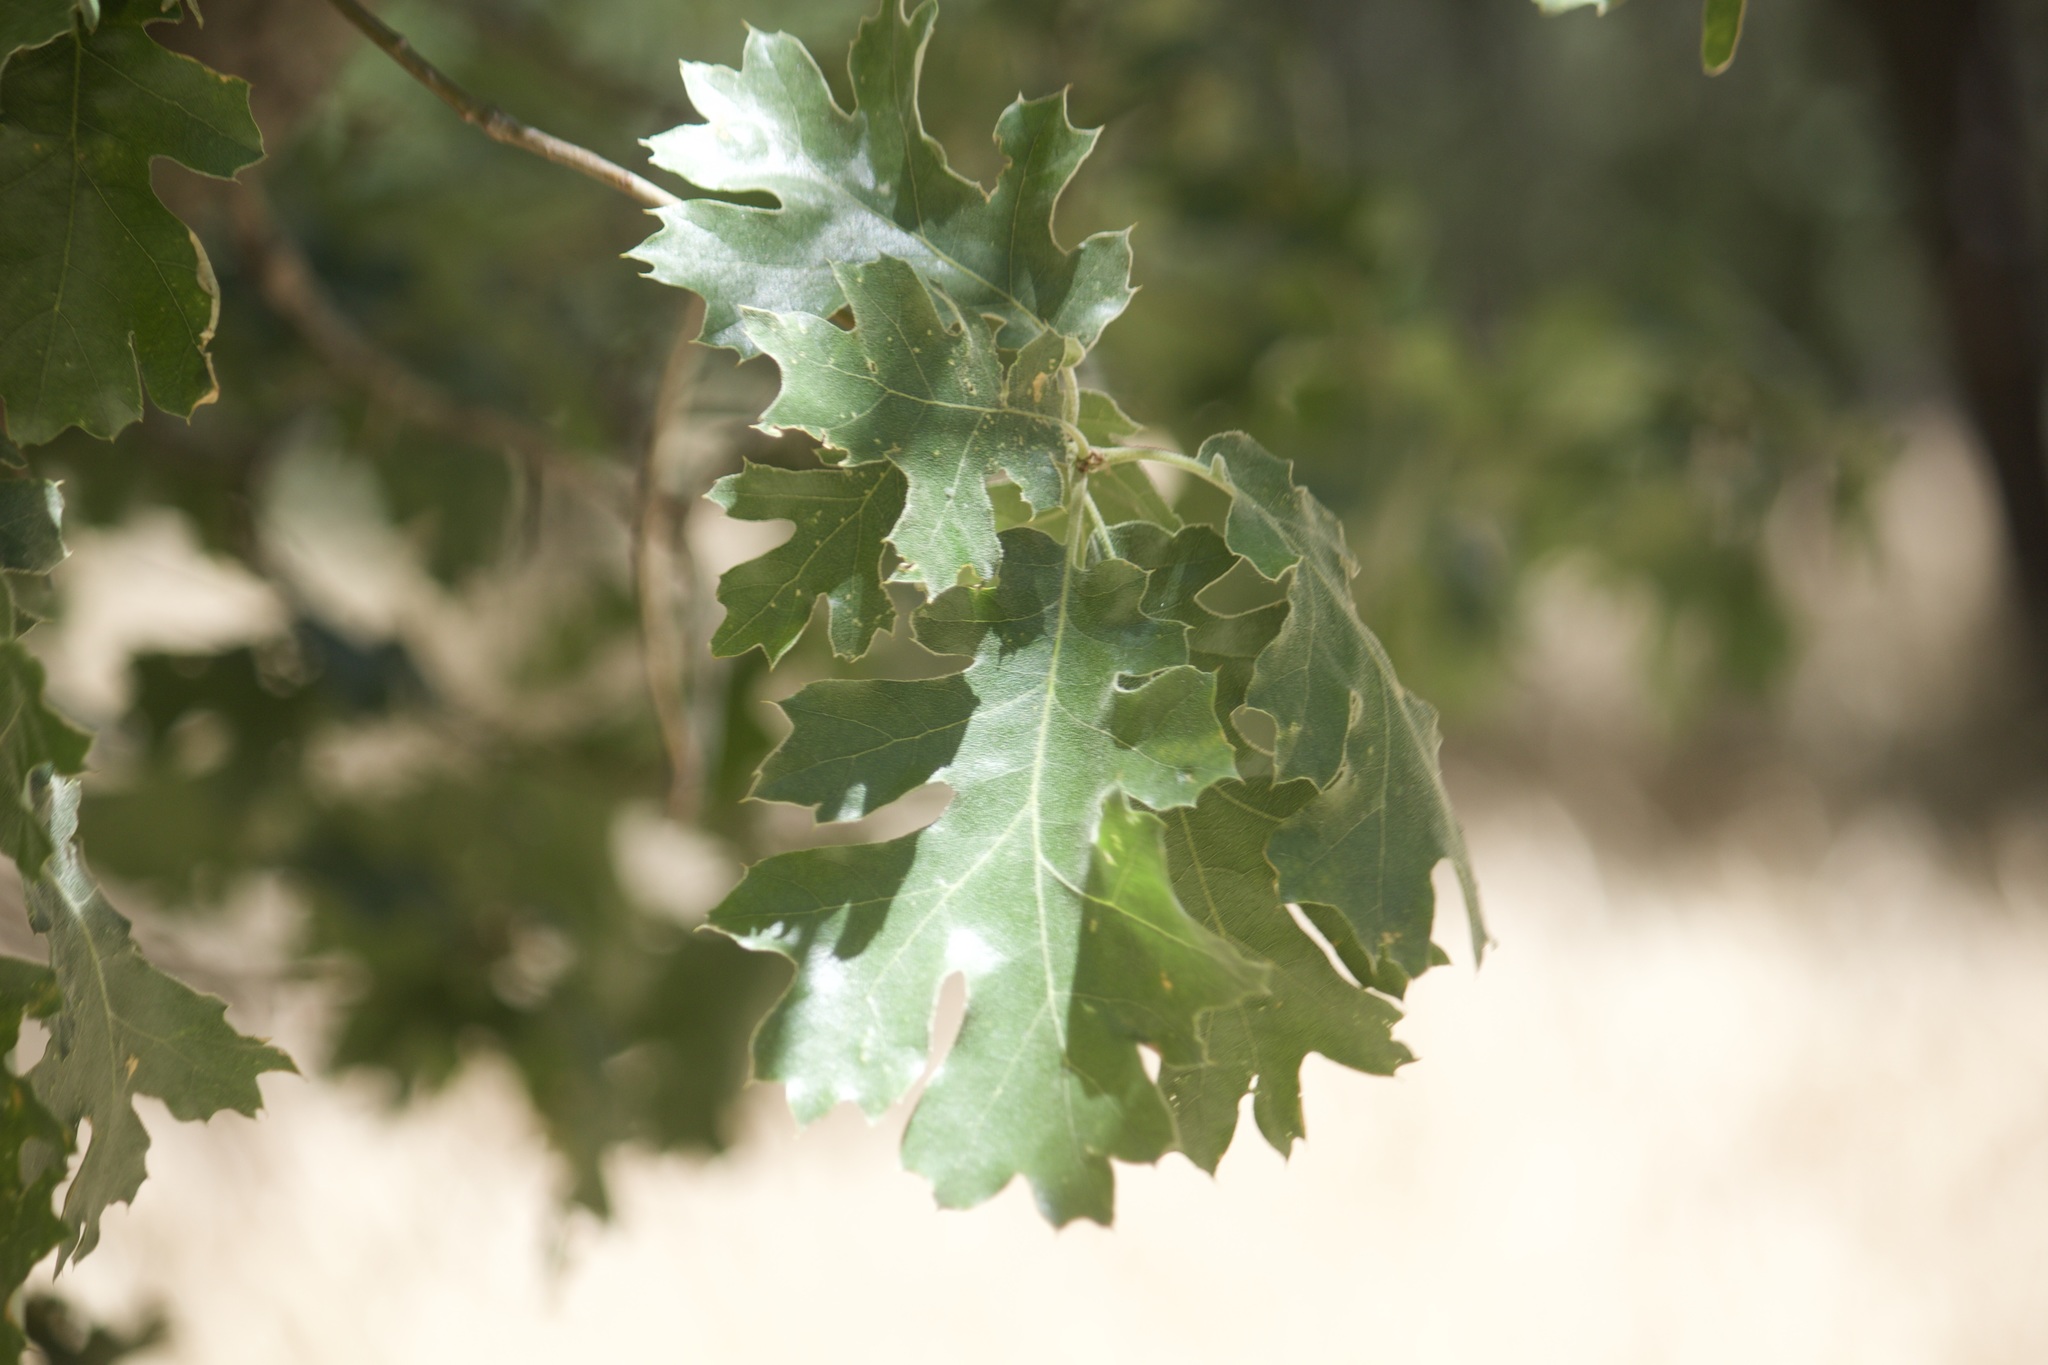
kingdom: Plantae
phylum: Tracheophyta
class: Magnoliopsida
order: Fagales
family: Fagaceae
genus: Quercus
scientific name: Quercus kelloggii
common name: California black oak
